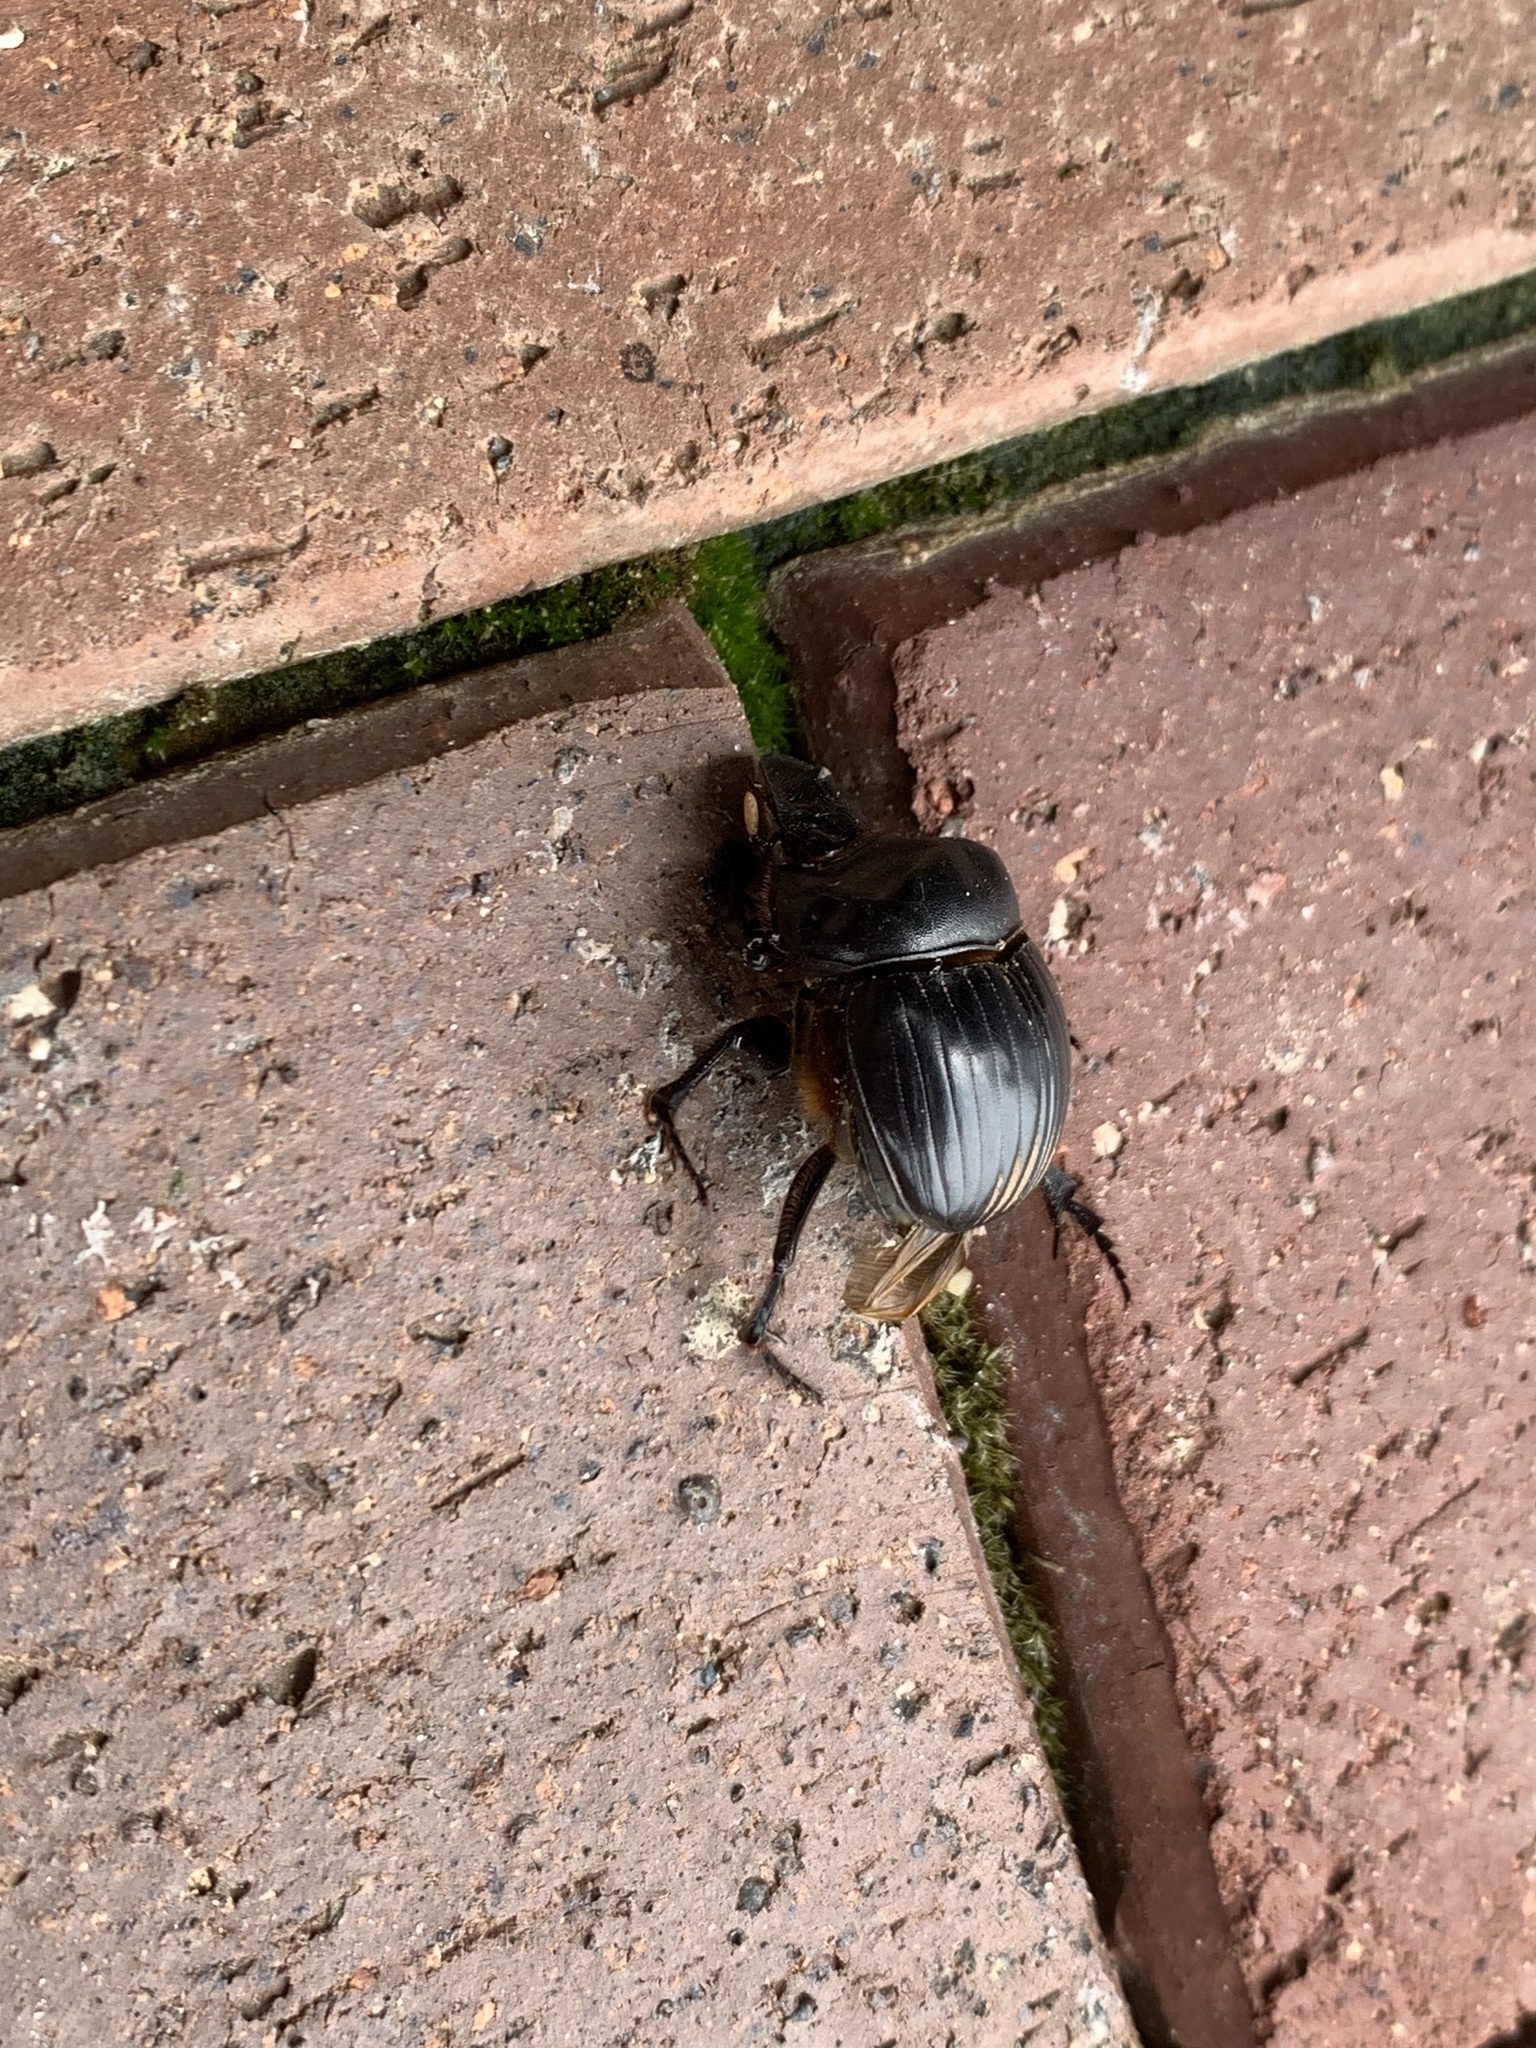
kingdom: Animalia
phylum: Arthropoda
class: Insecta
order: Coleoptera
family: Scarabaeidae
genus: Dichotomius
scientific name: Dichotomius carolinus
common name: Carolina copris
